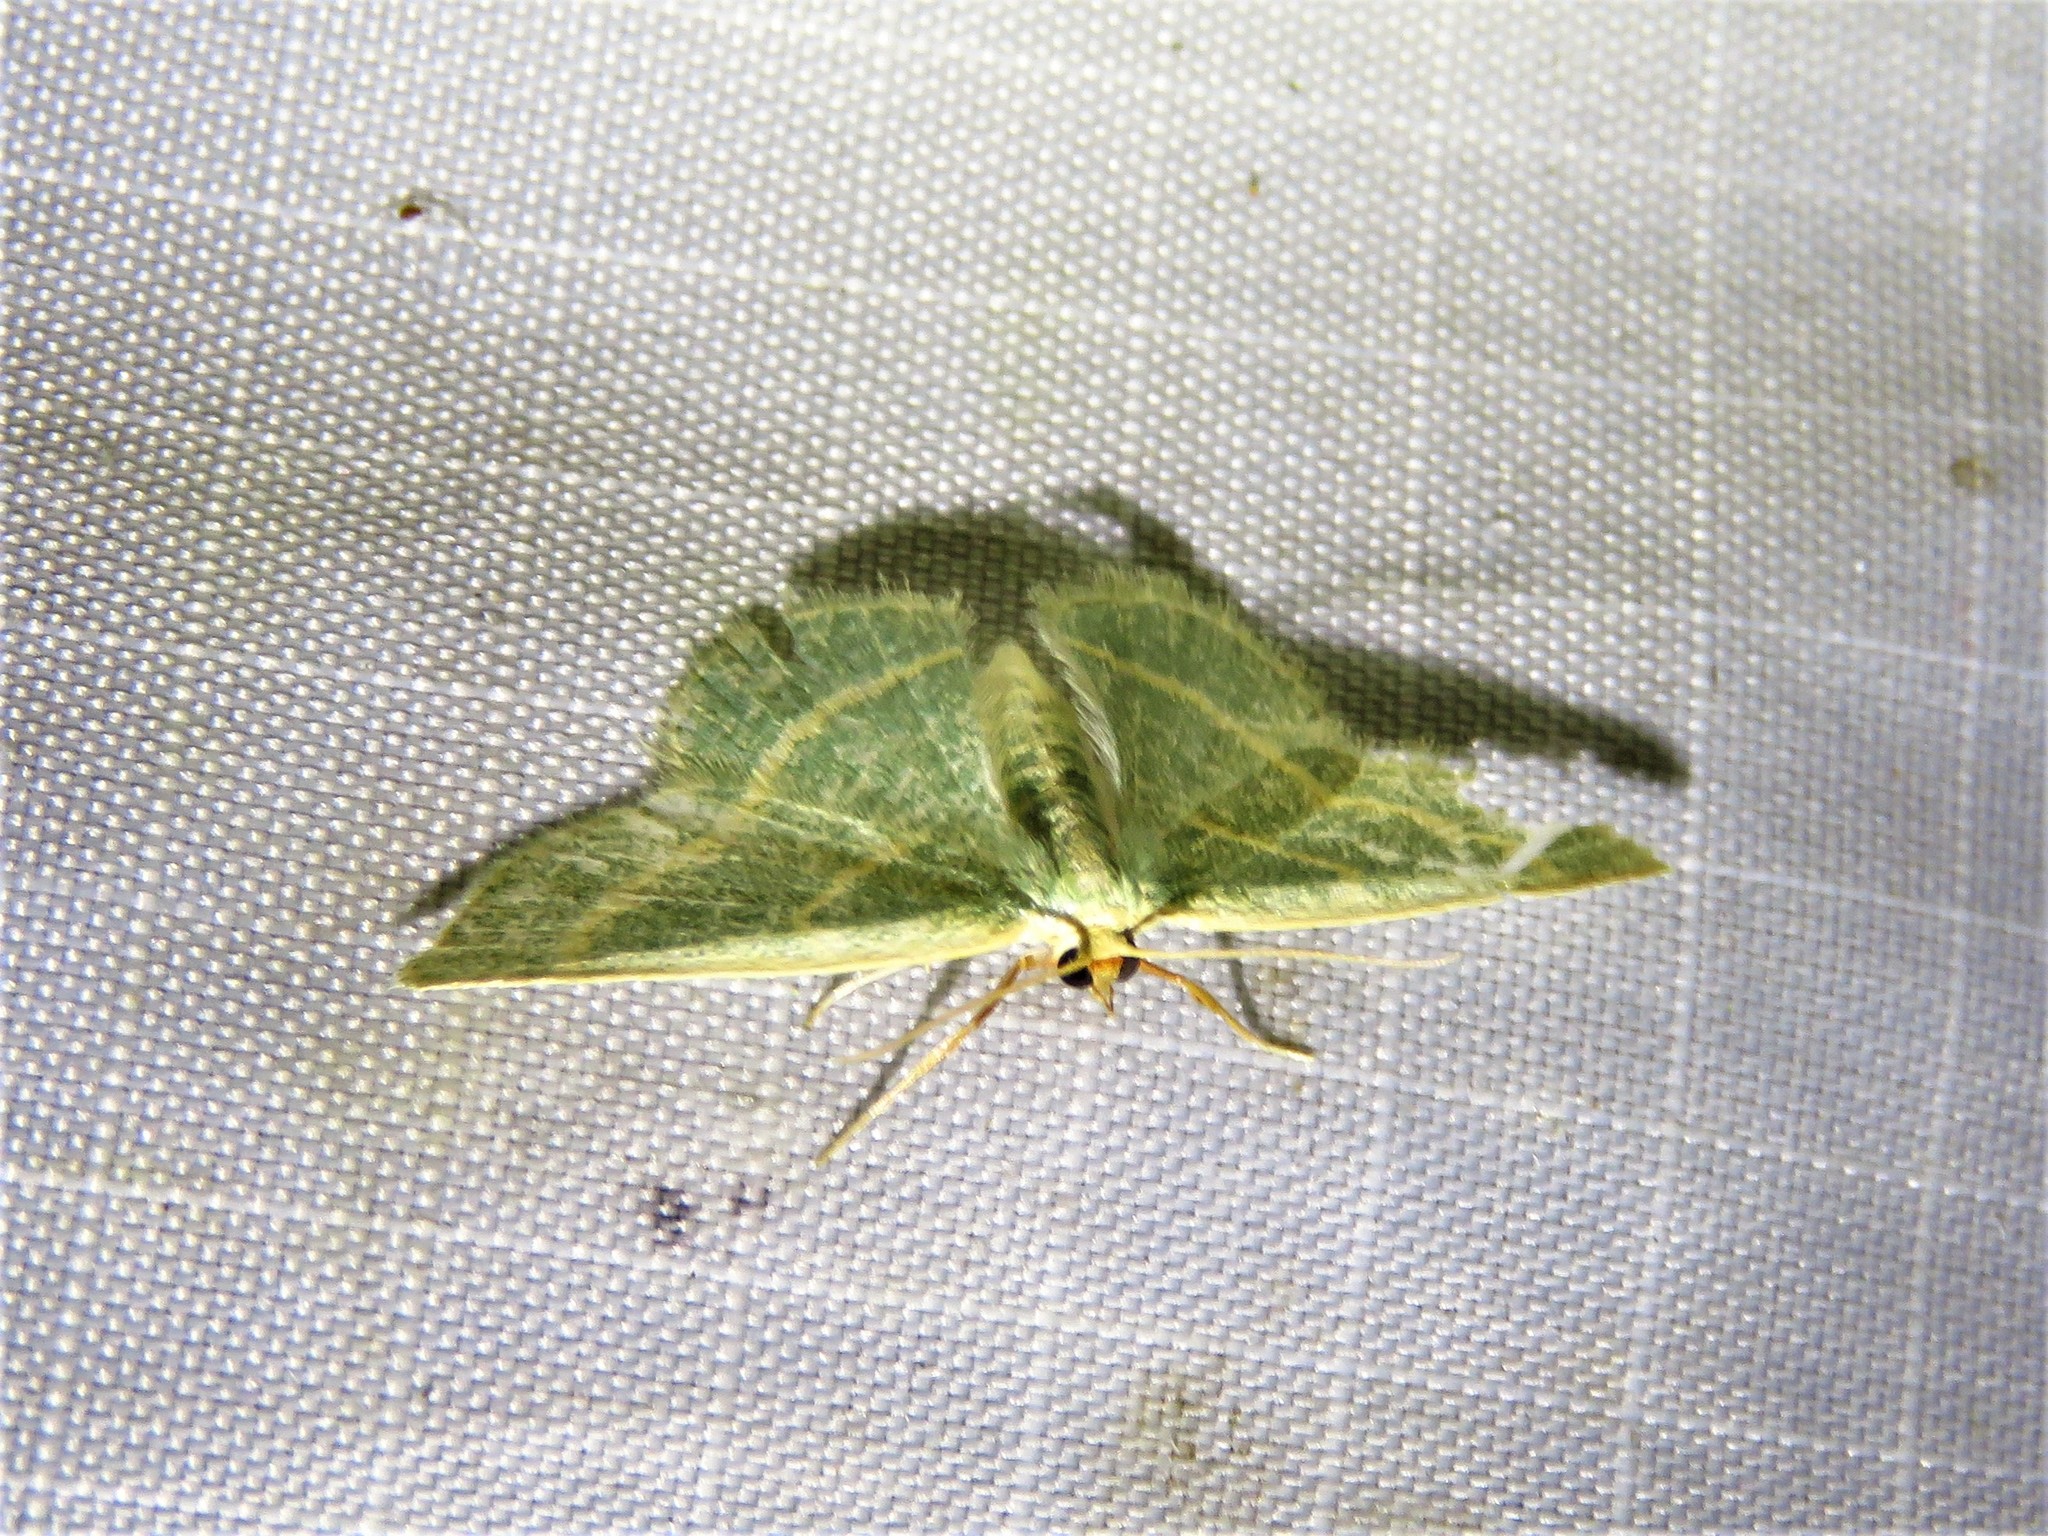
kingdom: Animalia
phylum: Arthropoda
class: Insecta
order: Lepidoptera
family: Geometridae
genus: Chlorochlamys
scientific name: Chlorochlamys chloroleucaria
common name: Blackberry looper
